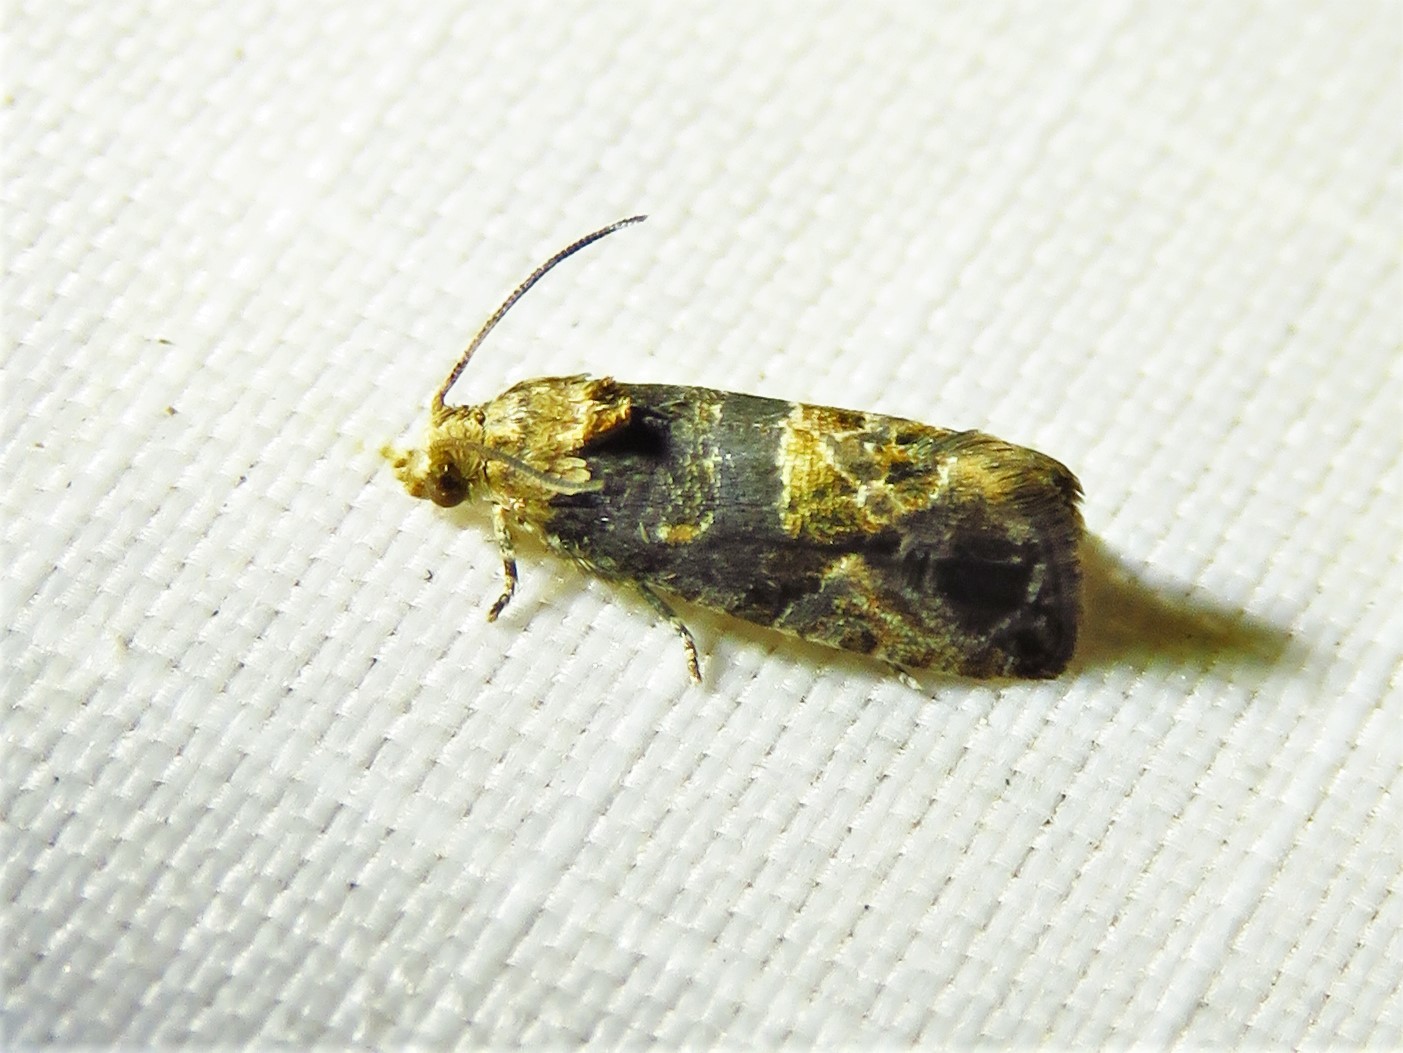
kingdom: Animalia
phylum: Arthropoda
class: Insecta
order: Lepidoptera
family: Tortricidae
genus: Paralobesia
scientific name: Paralobesia viteana
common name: Grape berry moth
